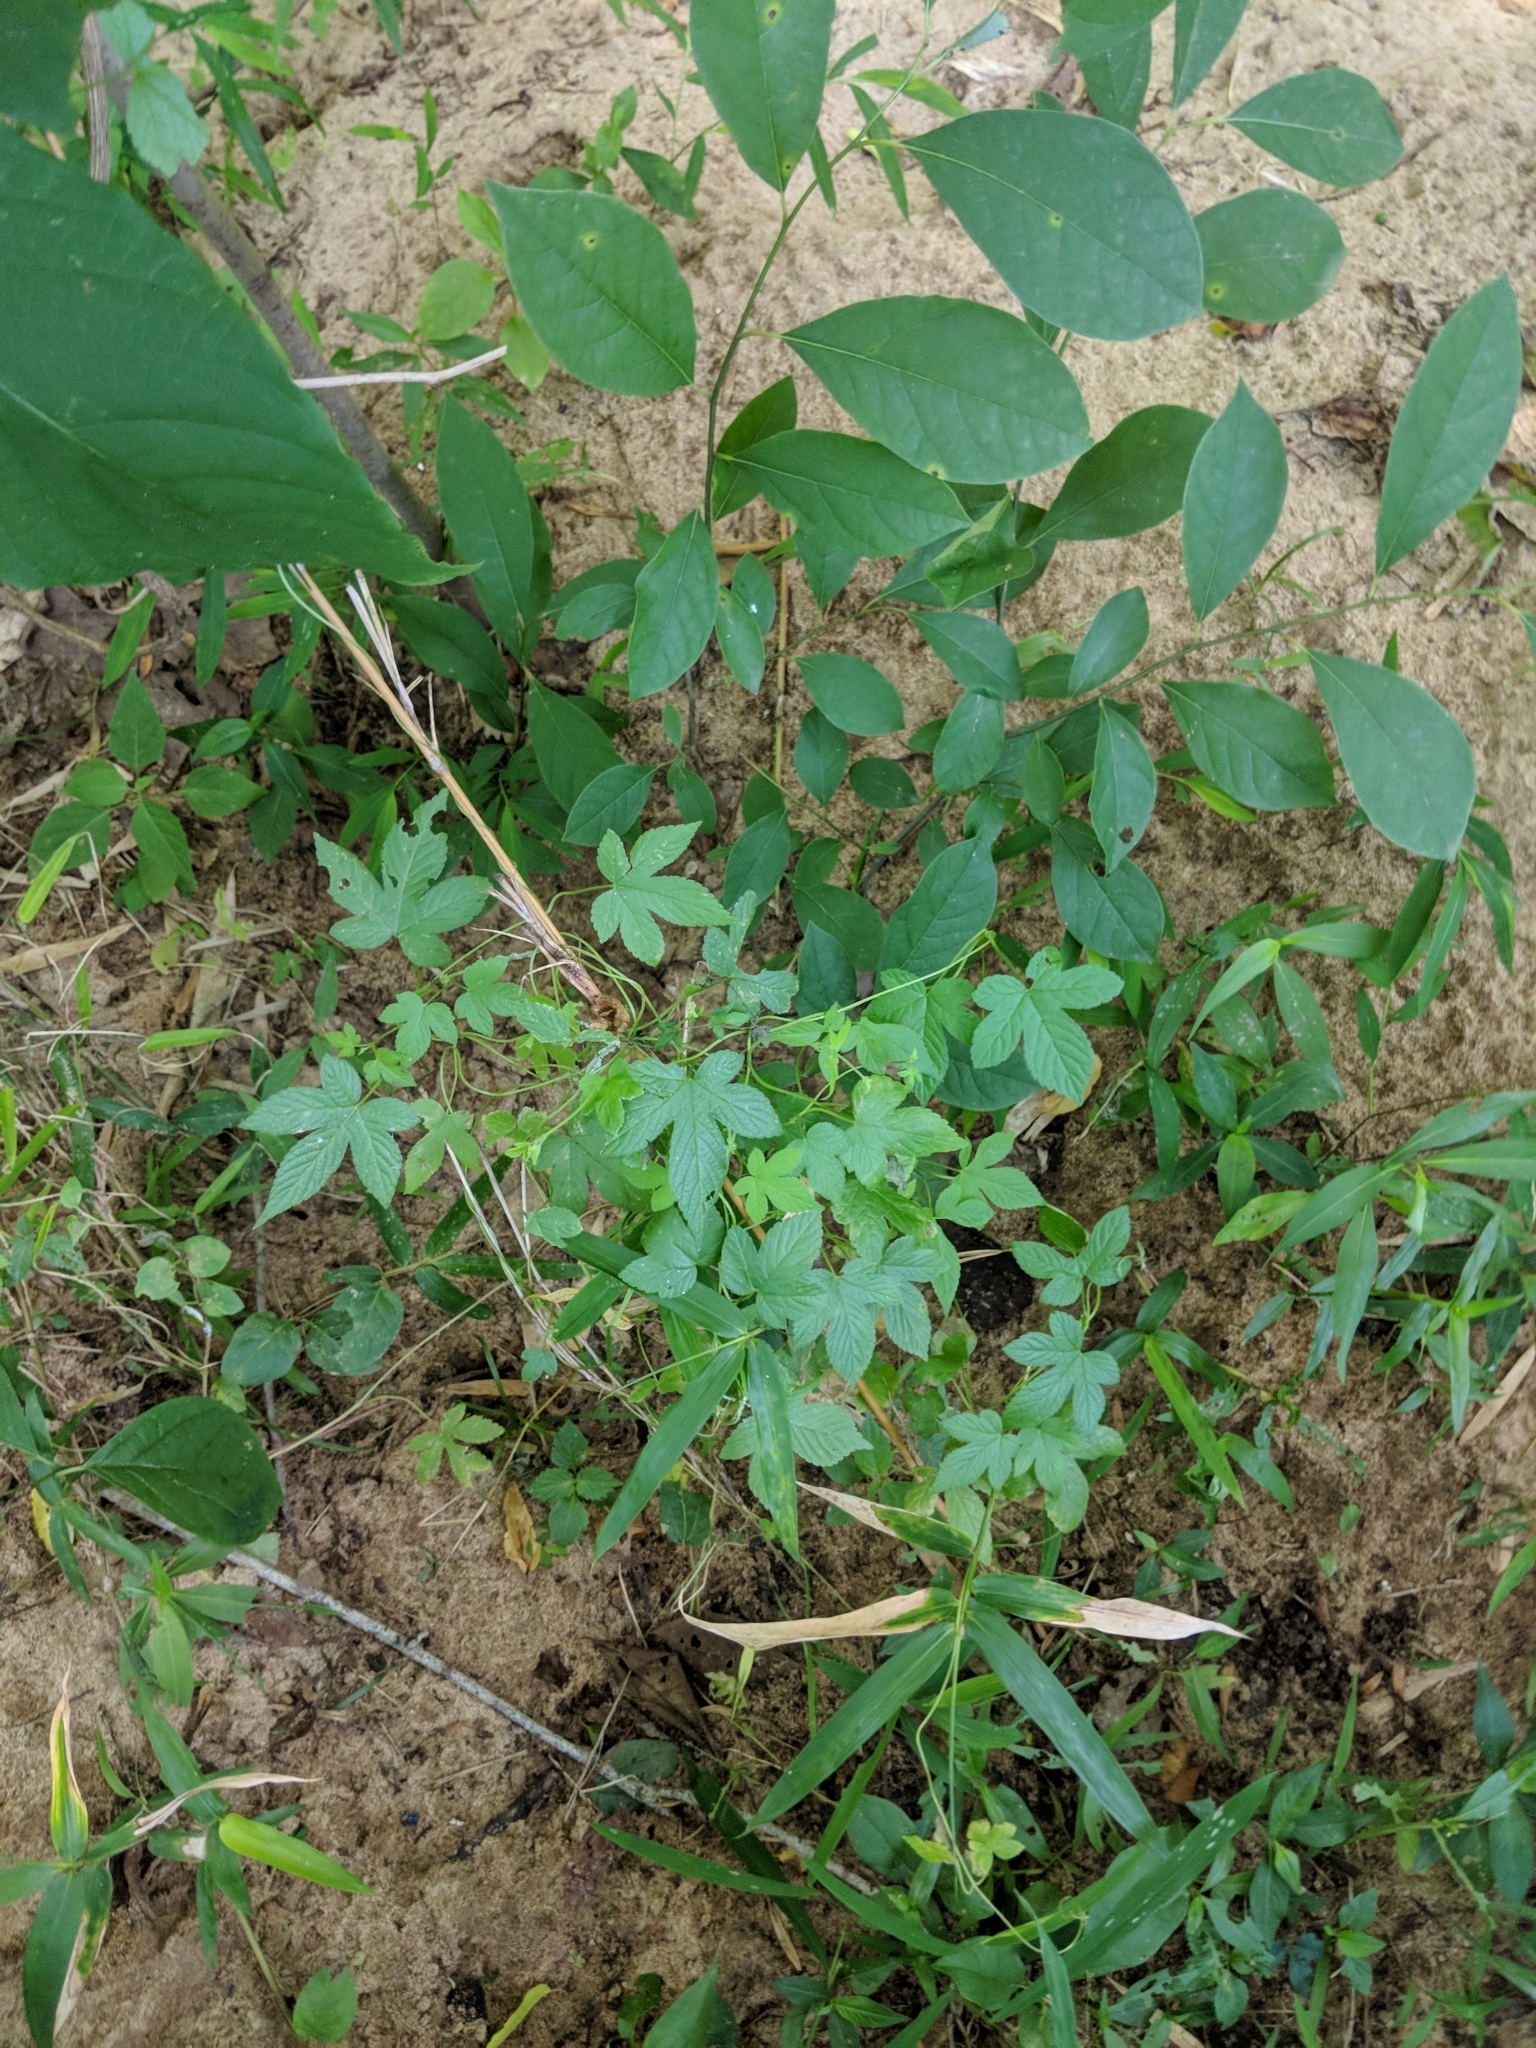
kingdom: Plantae
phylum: Tracheophyta
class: Magnoliopsida
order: Rosales
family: Cannabaceae
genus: Humulus
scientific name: Humulus scandens
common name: Japanese hop
